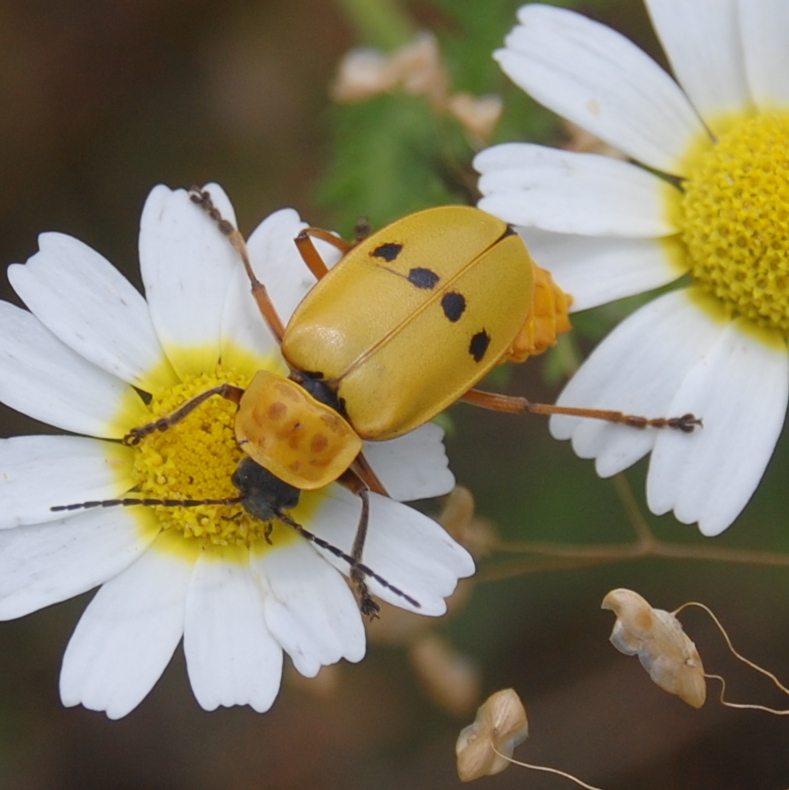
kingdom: Animalia
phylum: Arthropoda
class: Insecta
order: Coleoptera
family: Cantharidae
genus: Chauliognathus
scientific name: Chauliognathus
